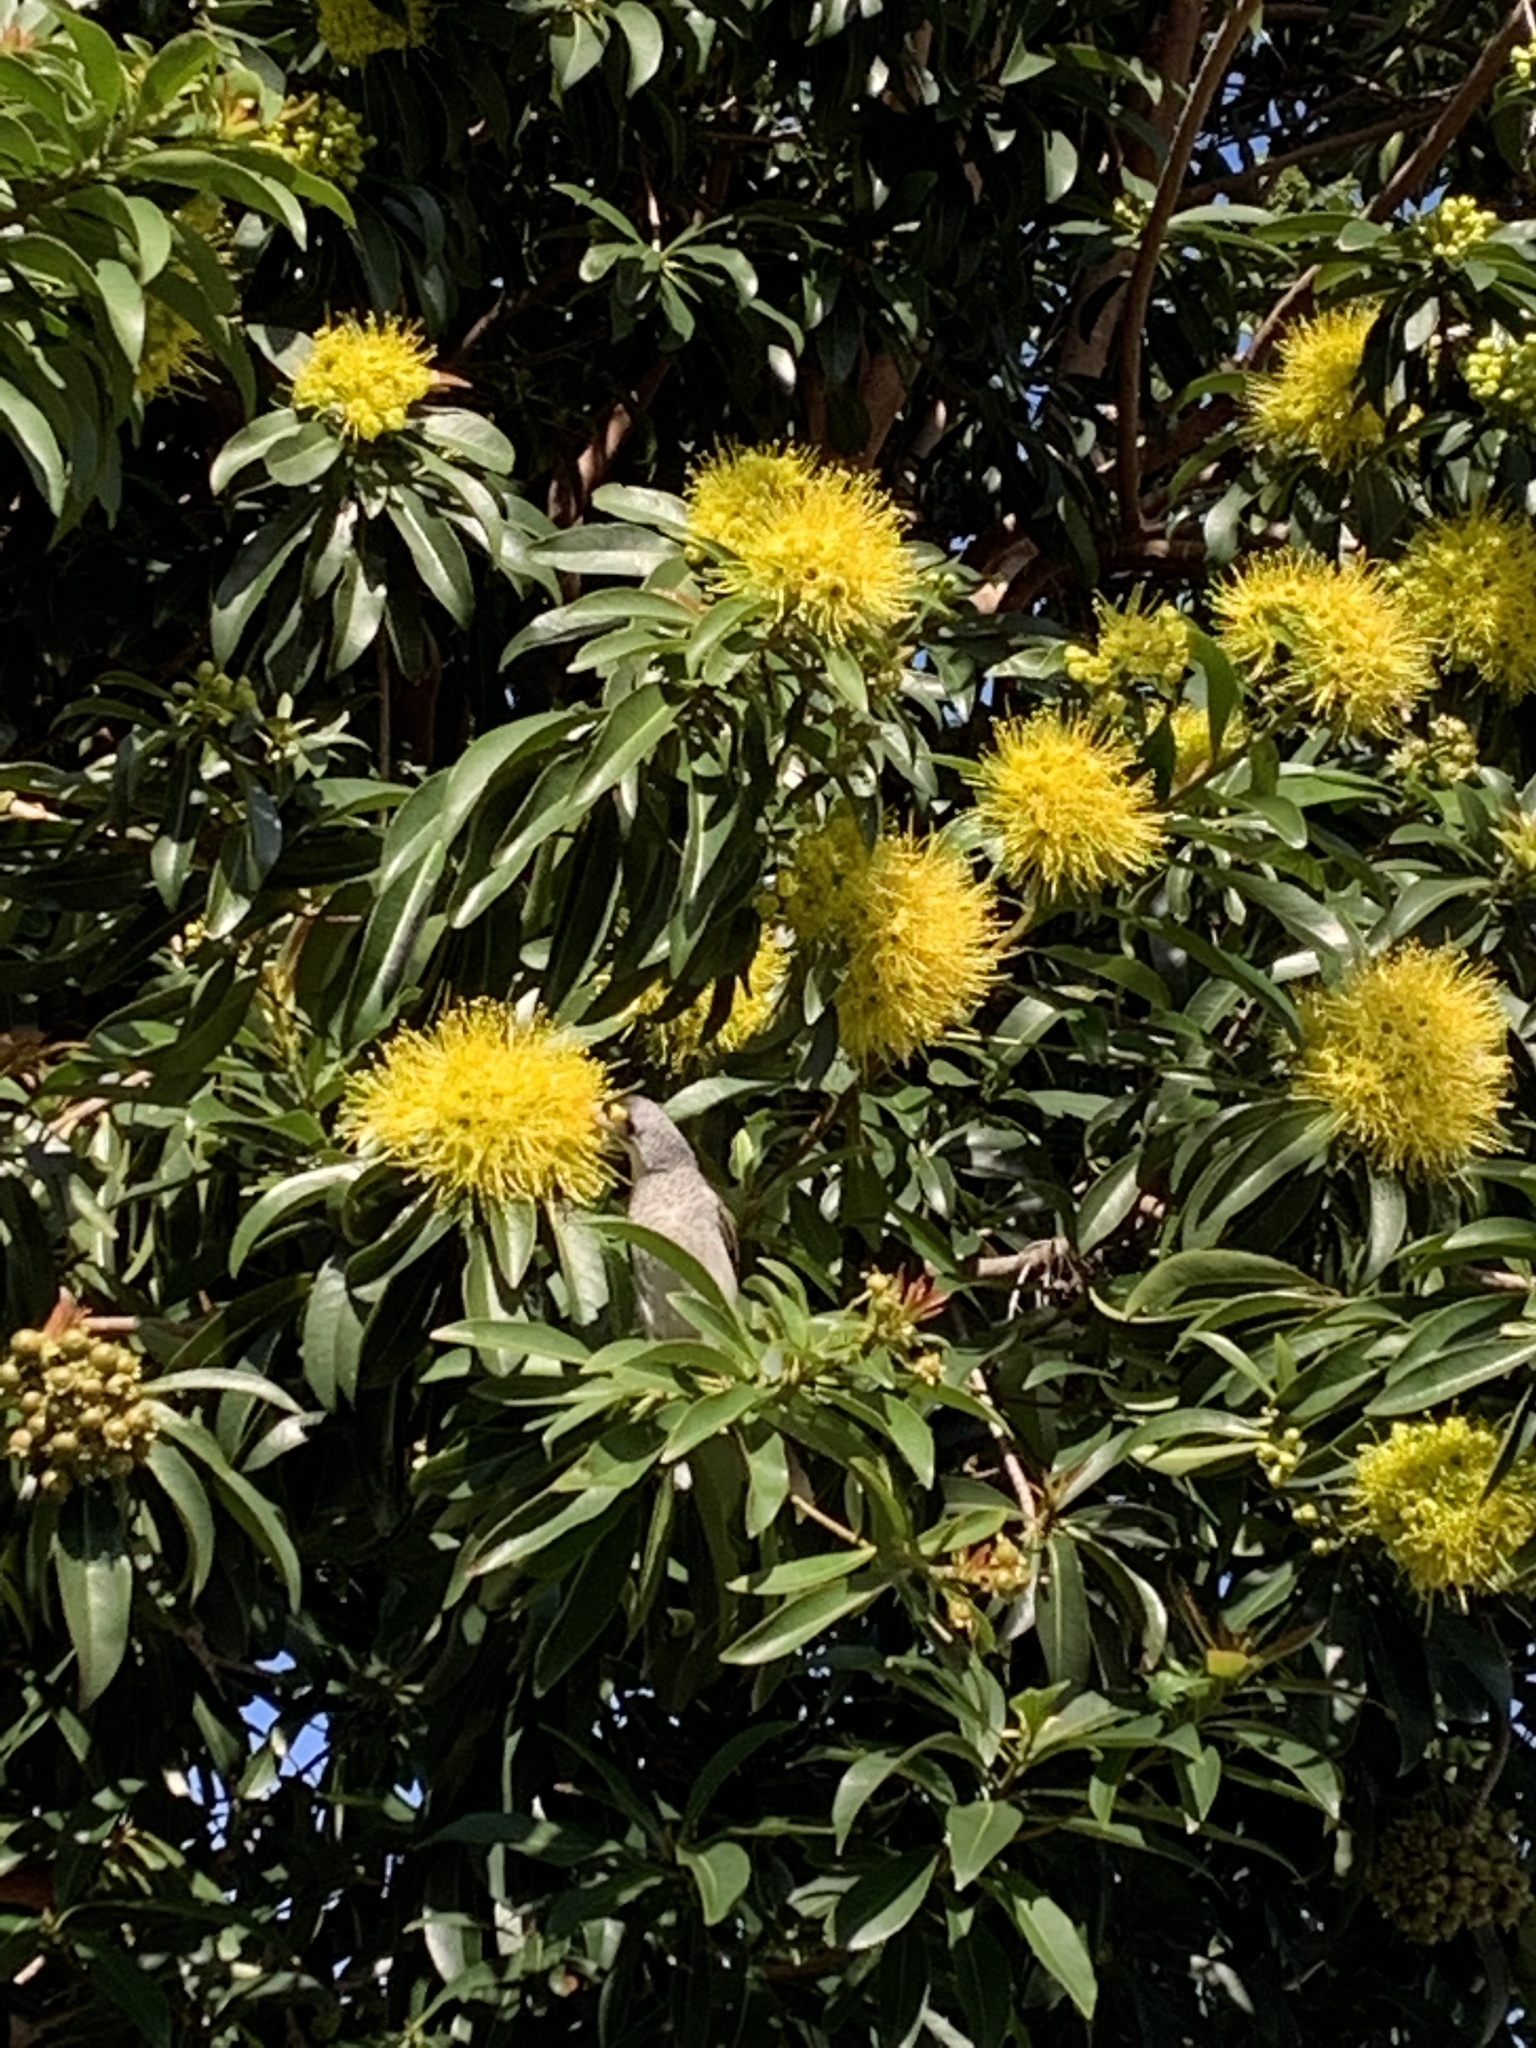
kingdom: Animalia
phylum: Chordata
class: Aves
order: Passeriformes
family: Meliphagidae
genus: Manorina
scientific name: Manorina melanocephala
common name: Noisy miner
